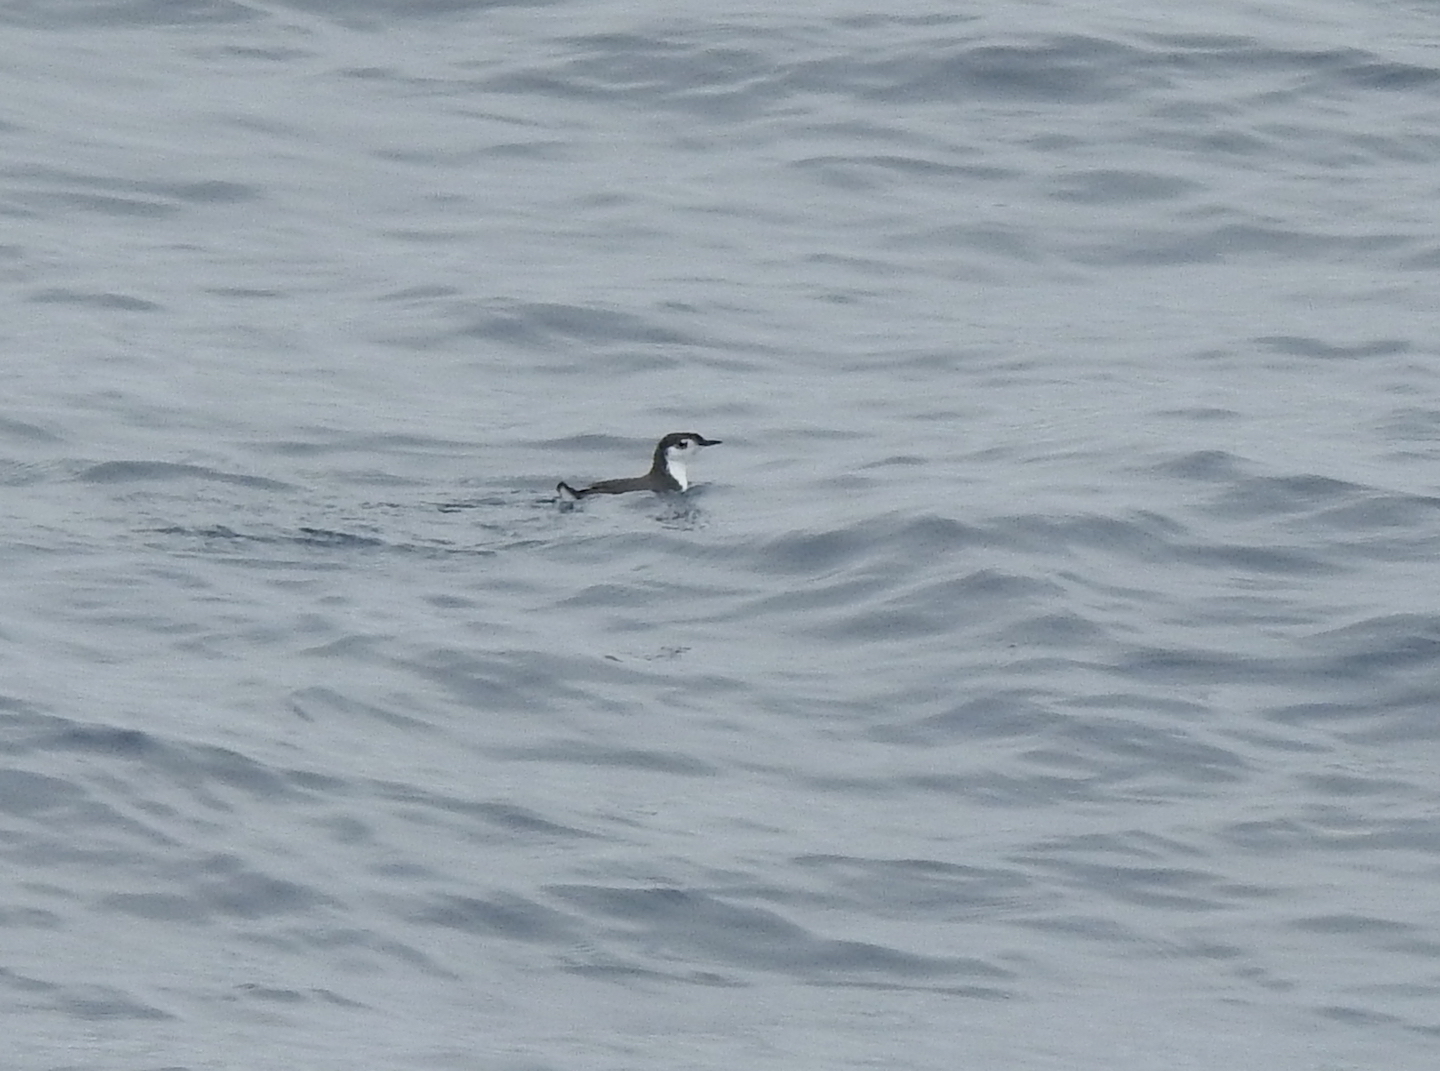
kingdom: Animalia
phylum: Chordata
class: Aves
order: Charadriiformes
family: Alcidae
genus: Synthliboramphus
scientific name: Synthliboramphus hypoleucus
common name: Guadalupe murrelet
